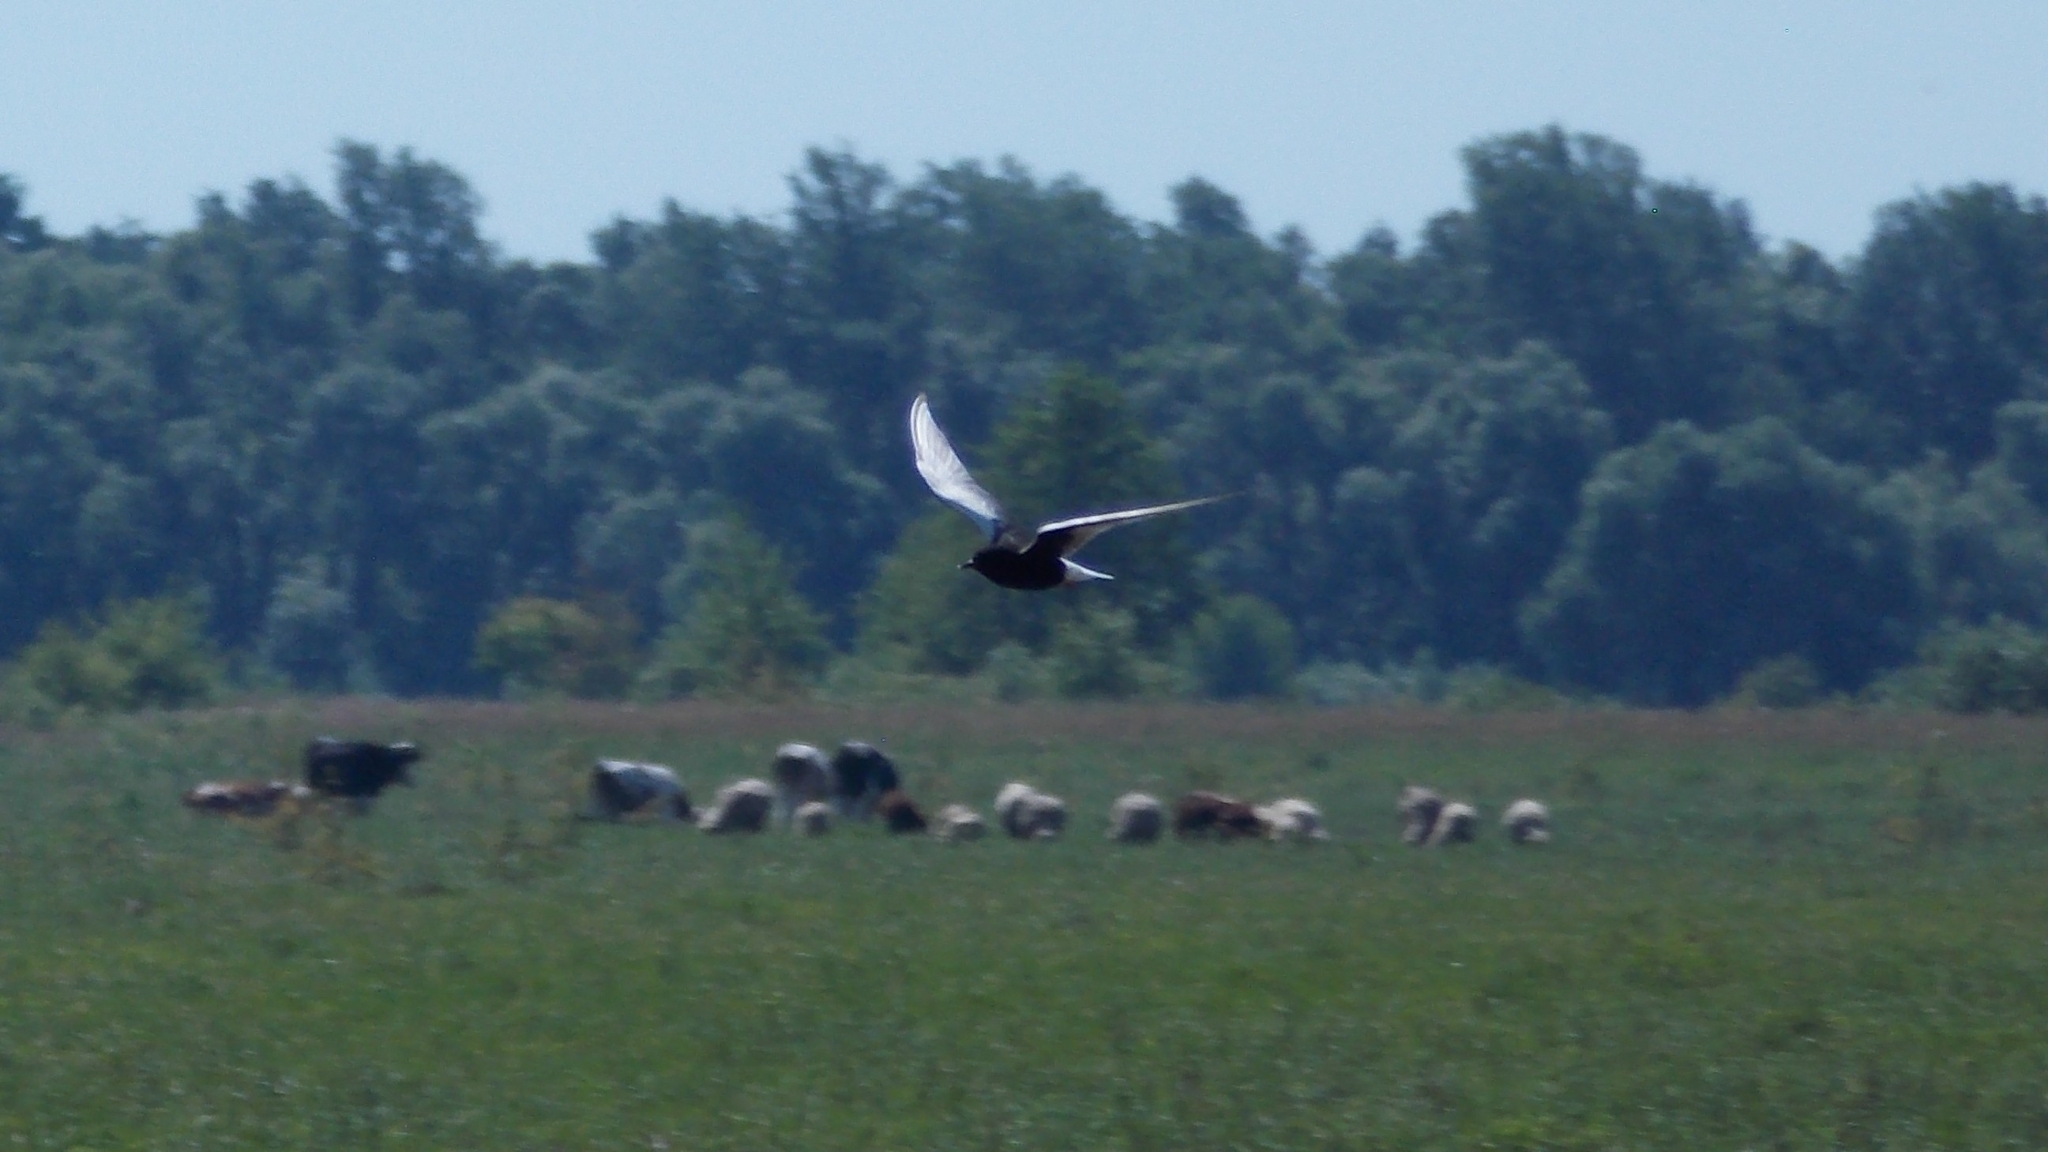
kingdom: Animalia
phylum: Chordata
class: Aves
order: Charadriiformes
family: Laridae
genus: Chlidonias
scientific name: Chlidonias leucopterus
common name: White-winged tern
